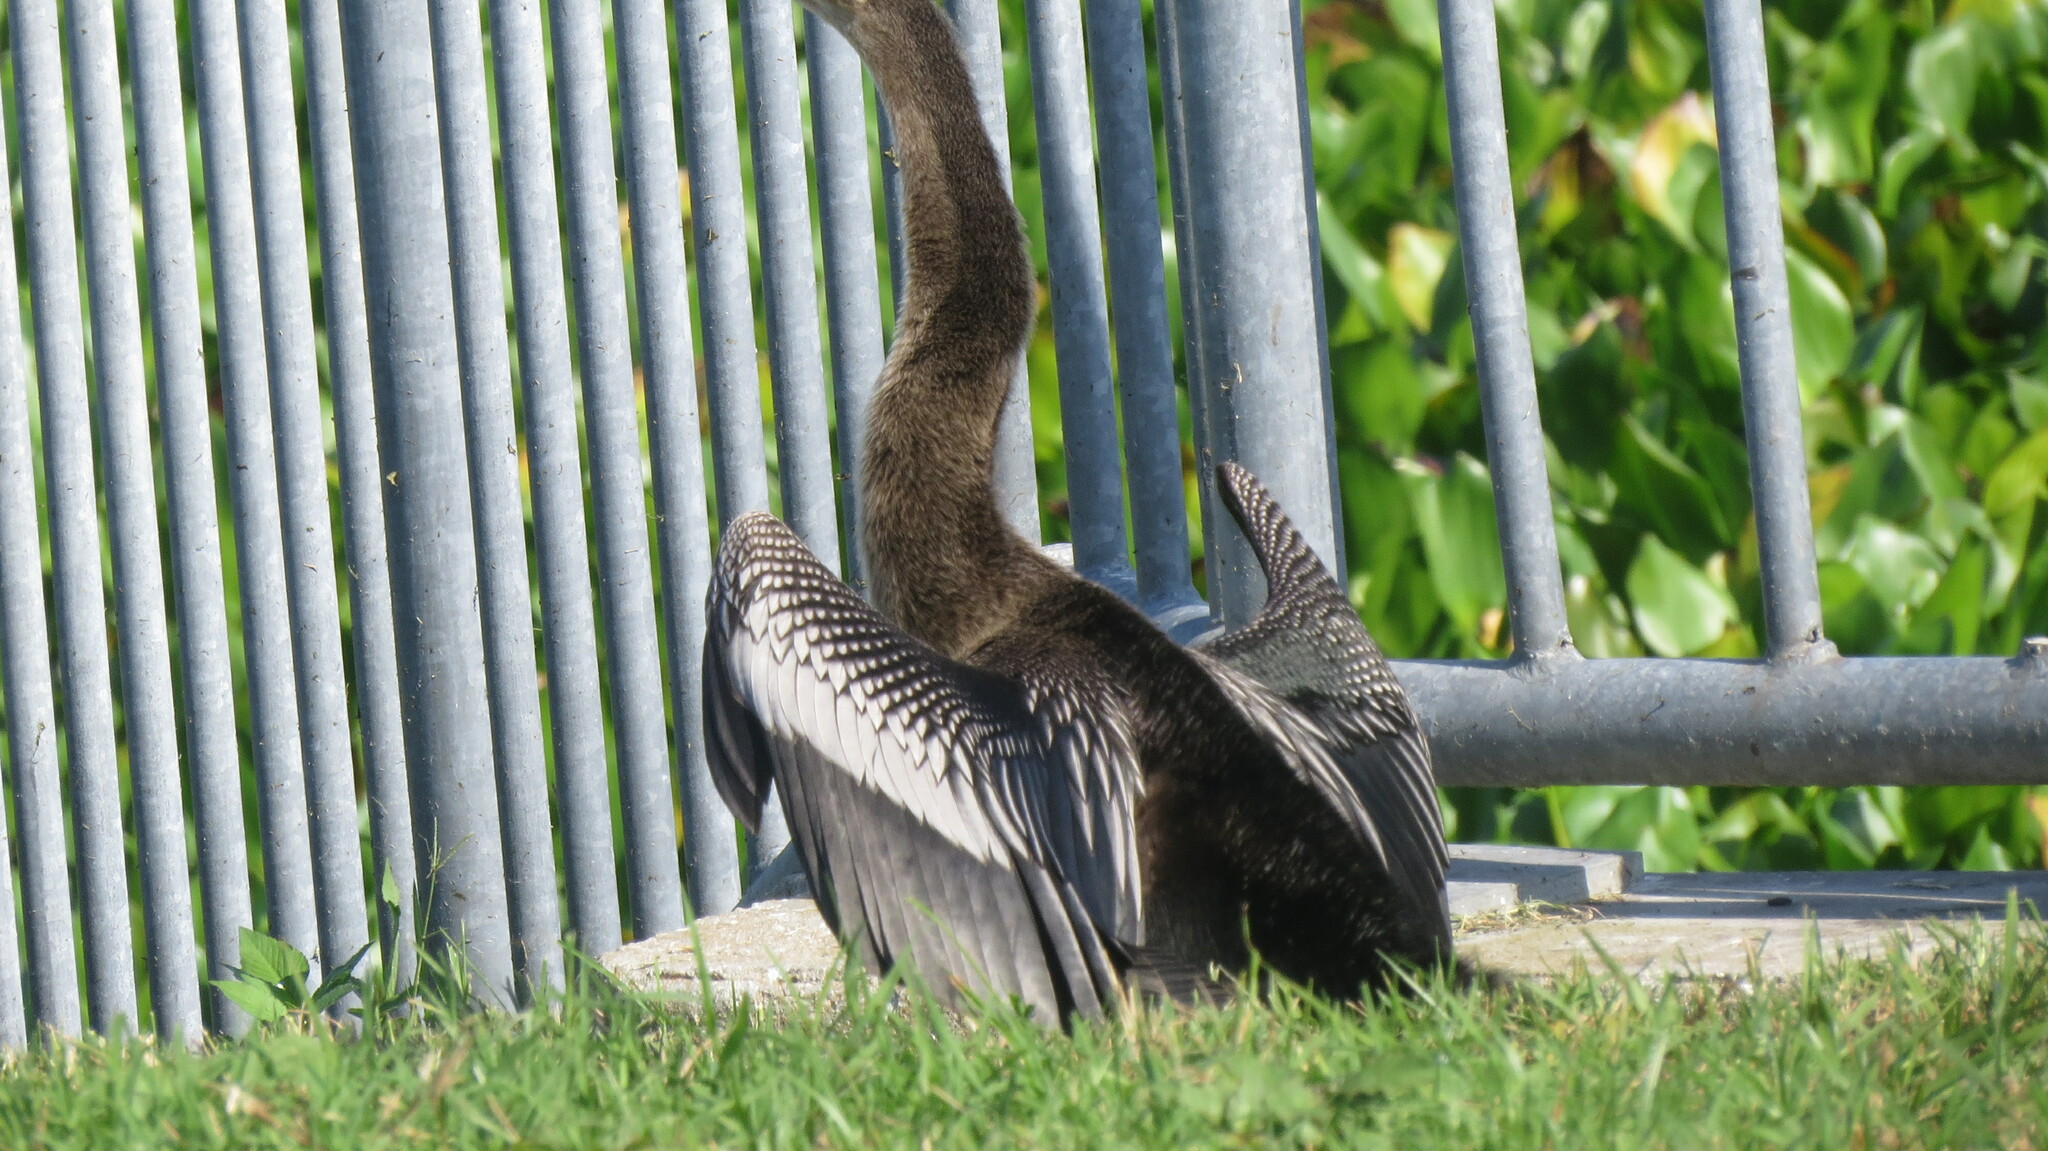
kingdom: Animalia
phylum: Chordata
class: Aves
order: Suliformes
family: Anhingidae
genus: Anhinga
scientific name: Anhinga anhinga
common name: Anhinga
